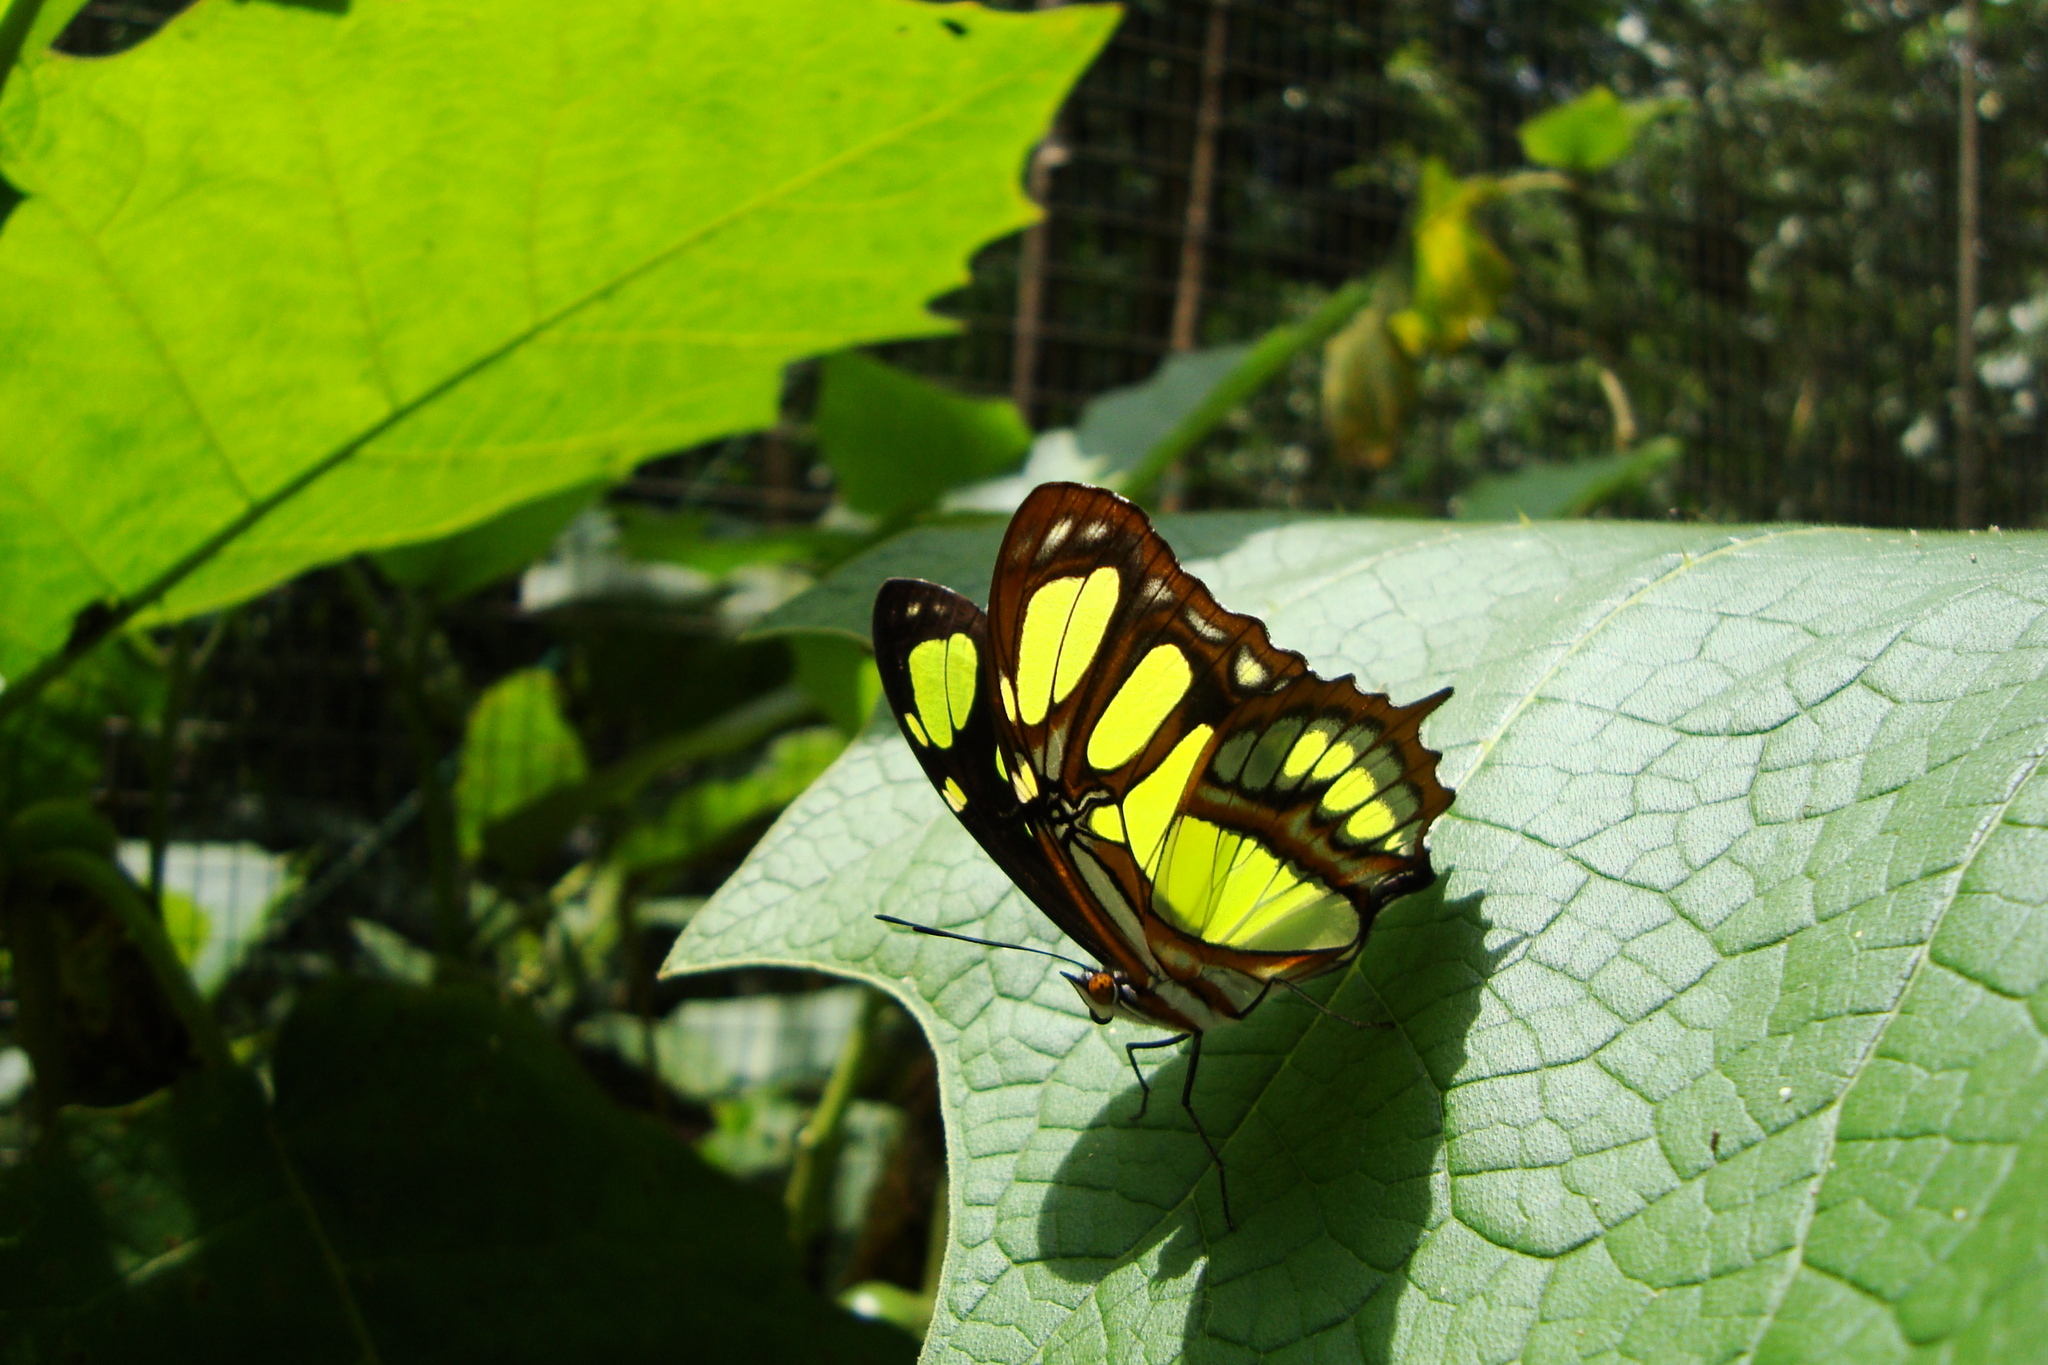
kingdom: Animalia
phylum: Arthropoda
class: Insecta
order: Lepidoptera
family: Nymphalidae
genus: Siproeta
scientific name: Siproeta stelenes
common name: Malachite
